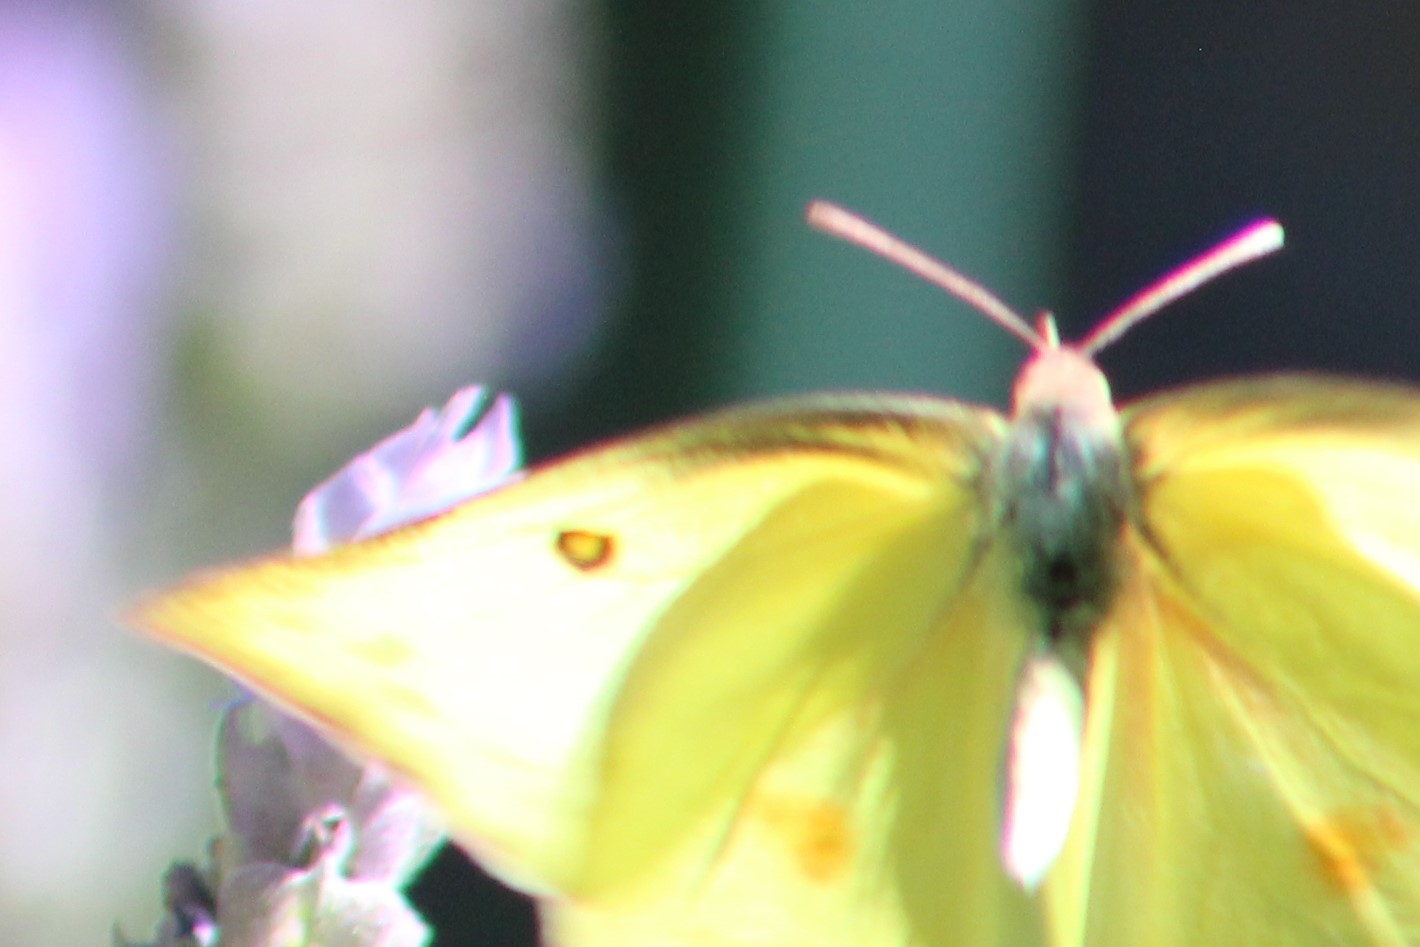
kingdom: Animalia
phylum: Arthropoda
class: Insecta
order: Lepidoptera
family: Pieridae
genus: Zerene
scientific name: Zerene cesonia
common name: Southern dogface
